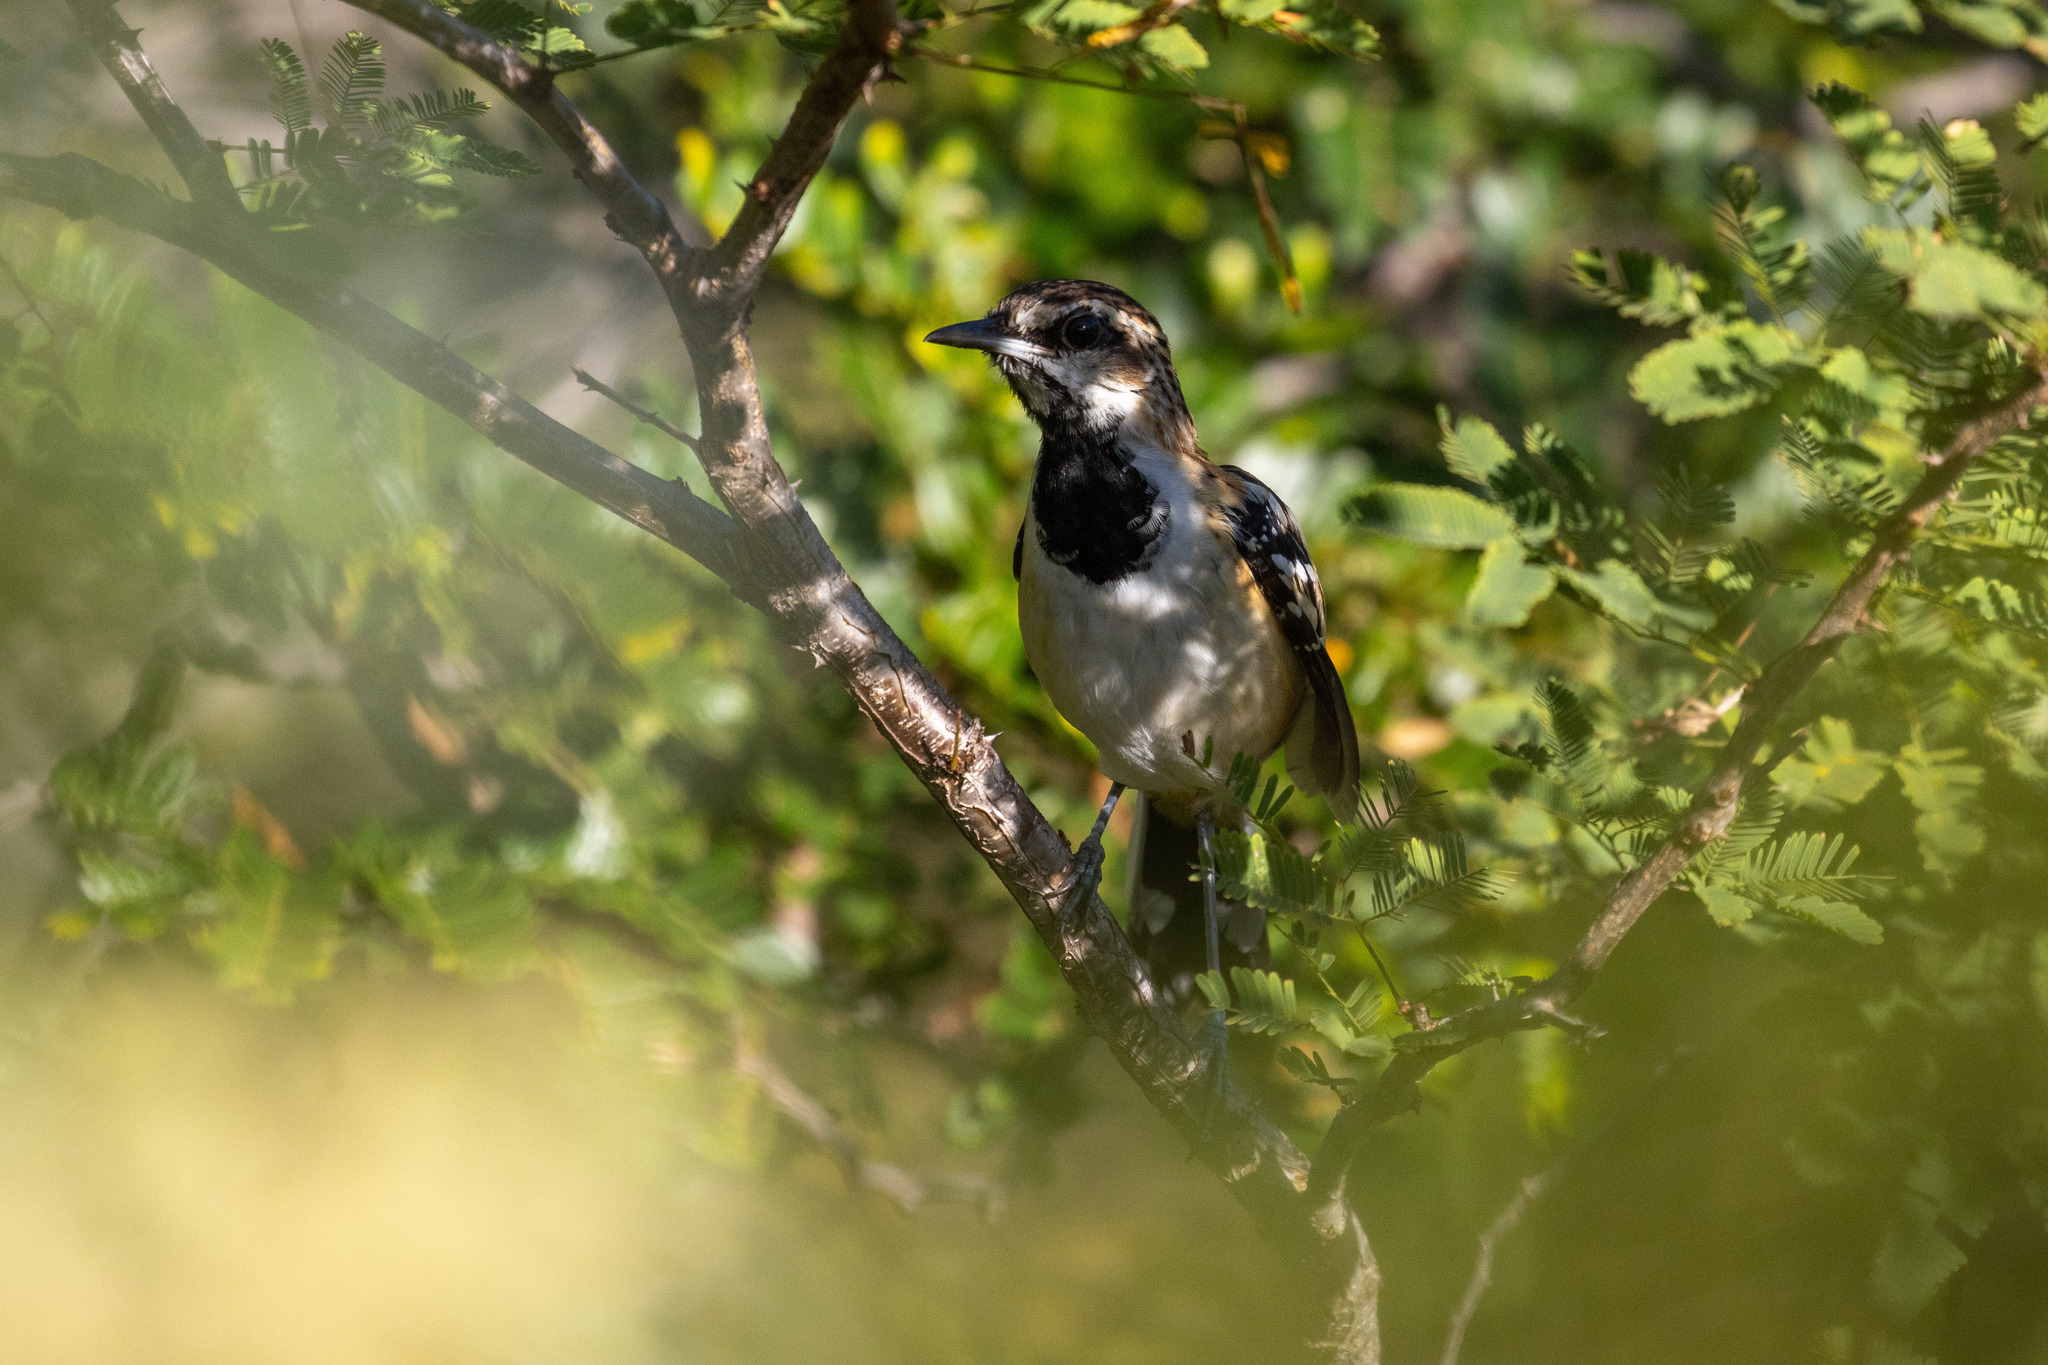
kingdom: Animalia
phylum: Chordata
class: Aves
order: Passeriformes
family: Thamnophilidae
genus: Myrmorchilus
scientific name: Myrmorchilus strigilatus
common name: Stripe-backed antbird
